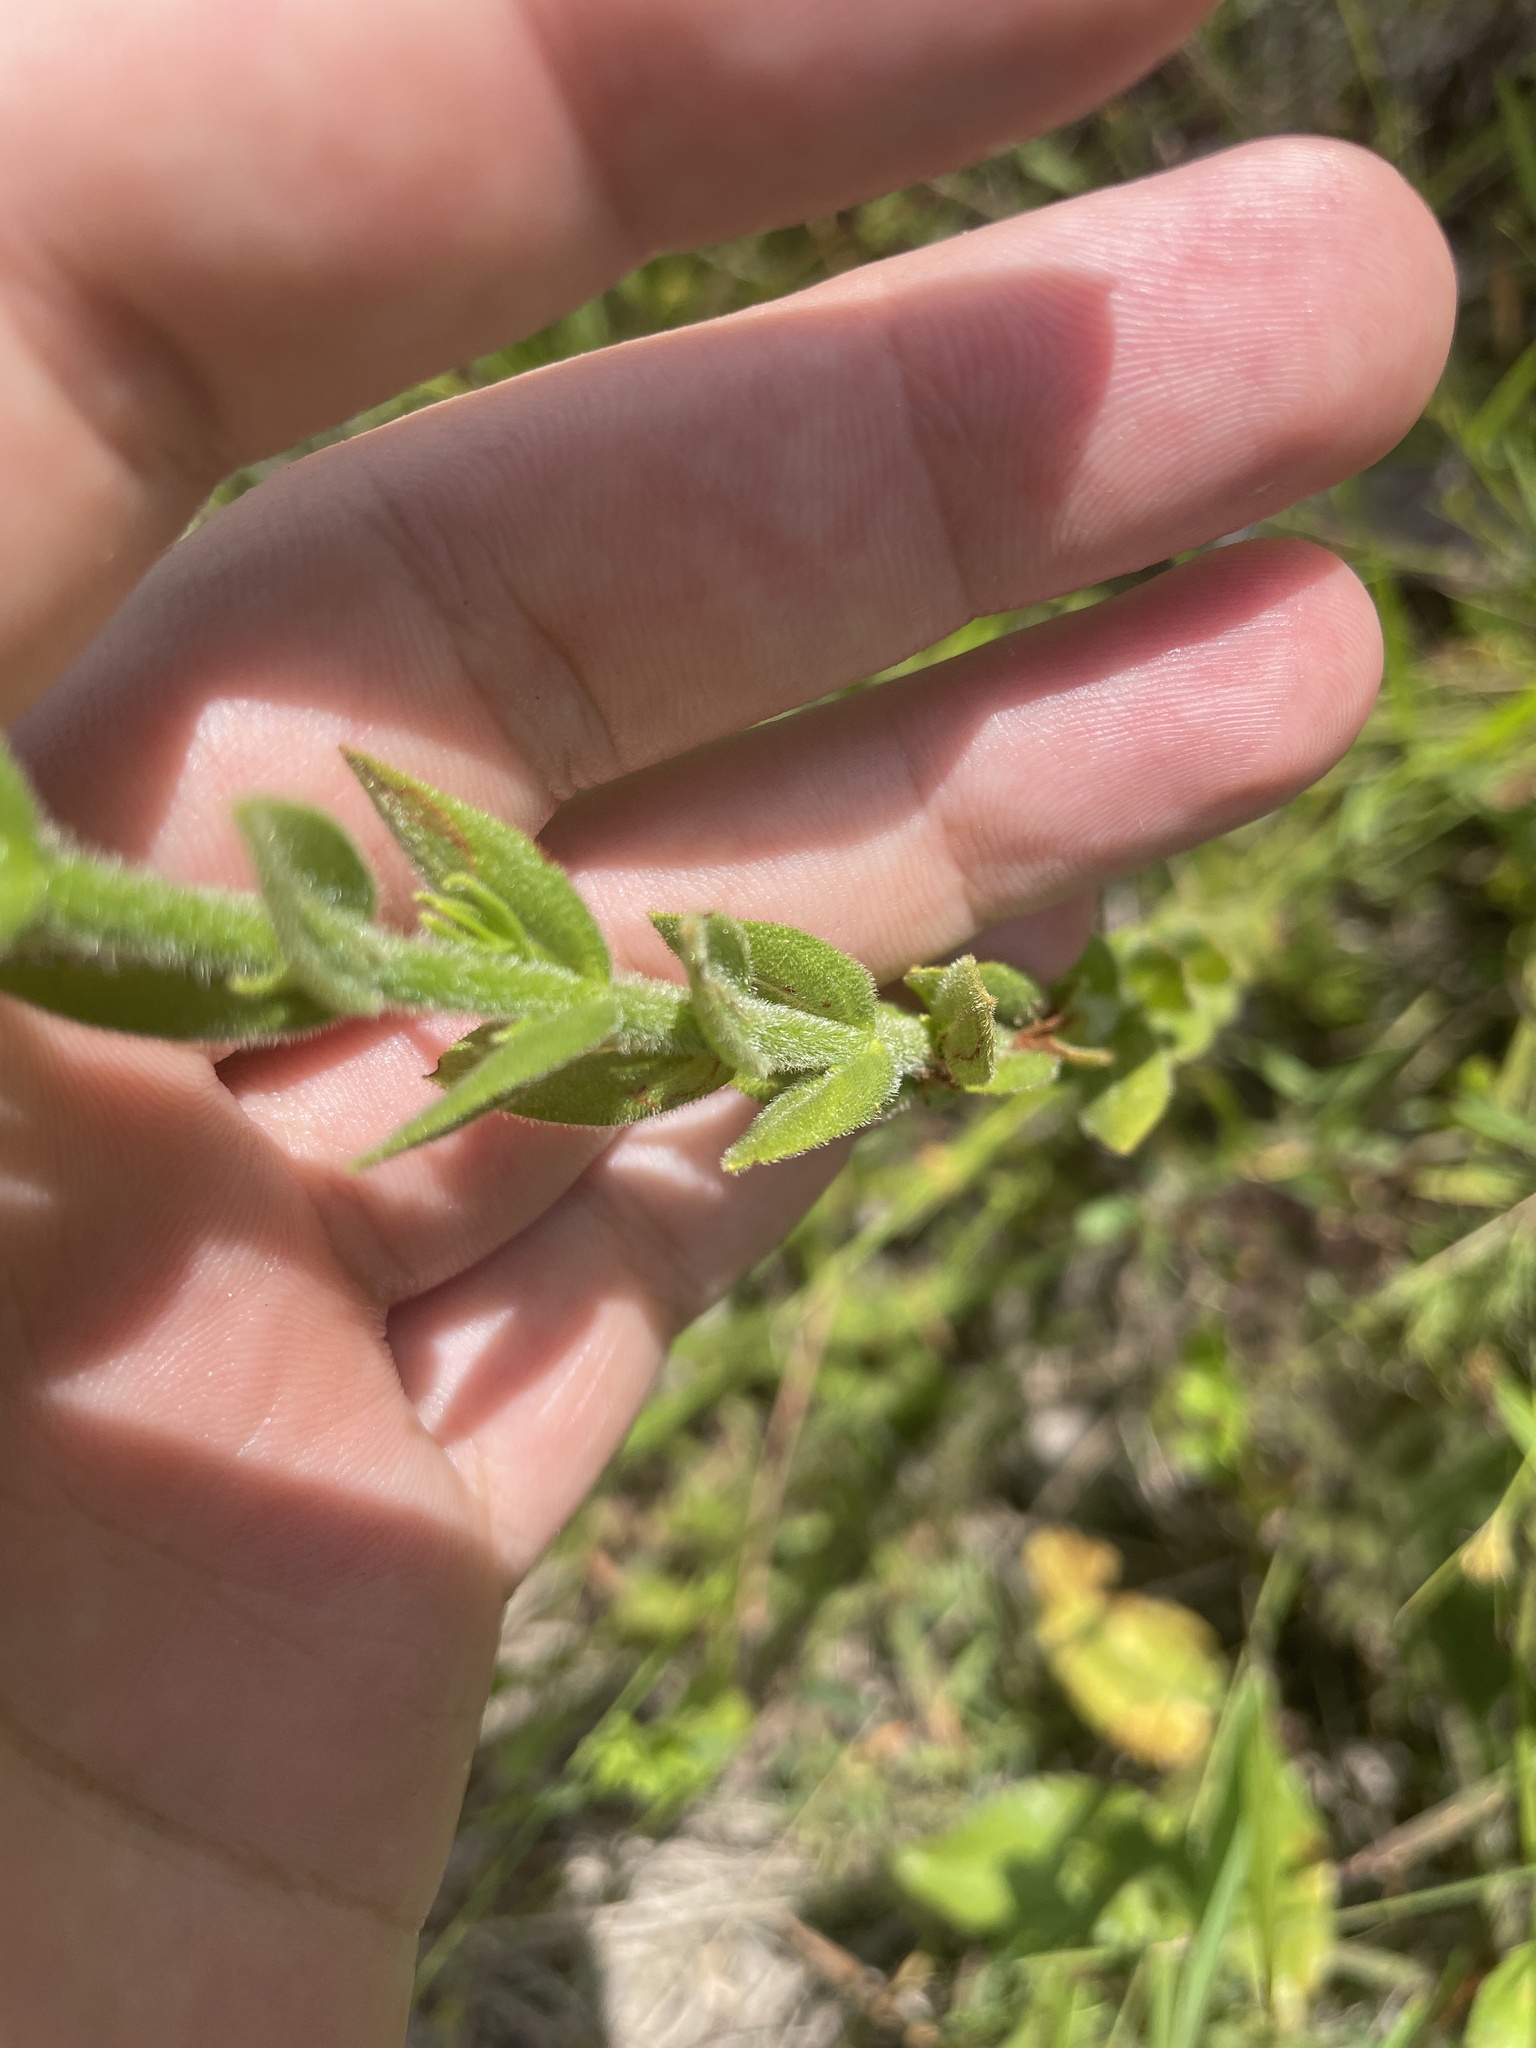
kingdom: Plantae
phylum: Tracheophyta
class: Magnoliopsida
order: Malpighiales
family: Hypericaceae
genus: Hypericum
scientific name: Hypericum setosum
